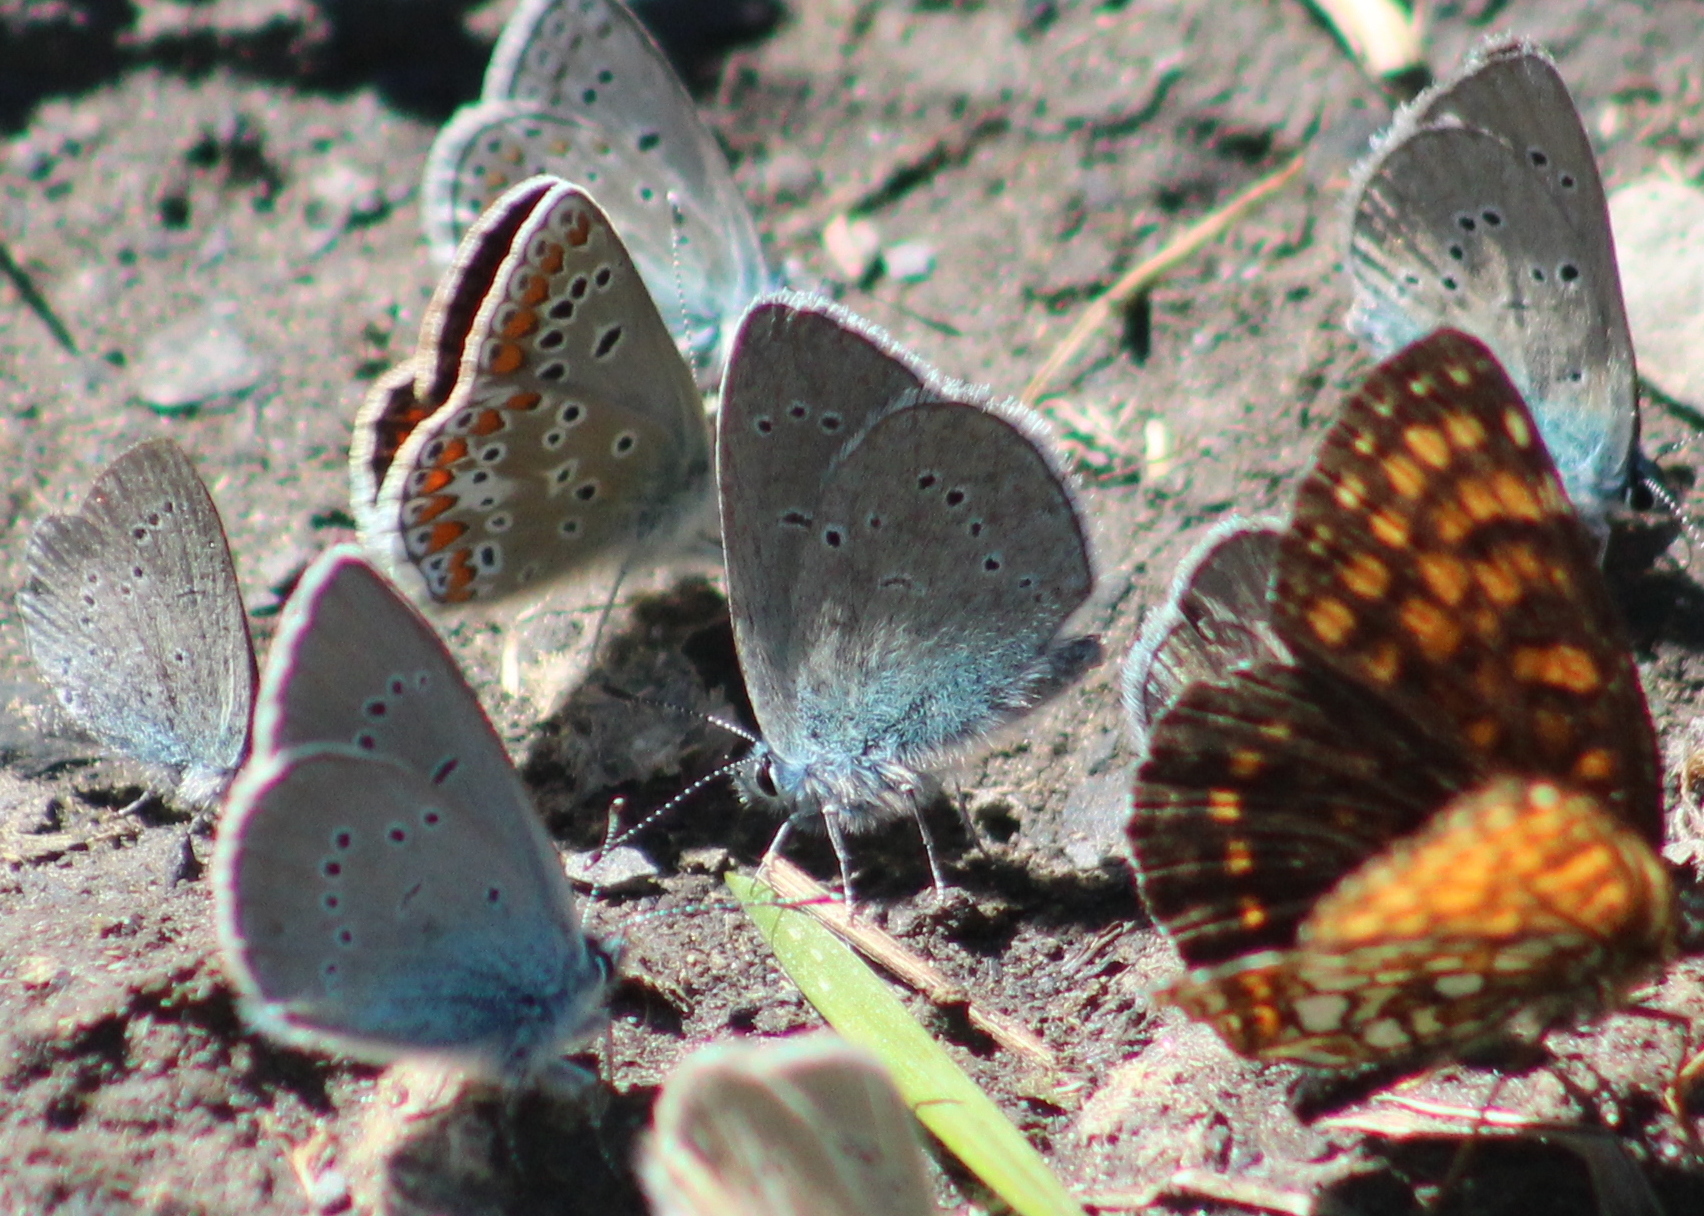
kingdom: Animalia
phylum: Arthropoda
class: Insecta
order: Lepidoptera
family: Lycaenidae
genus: Cyaniris
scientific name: Cyaniris semiargus
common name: Mazarine blue
